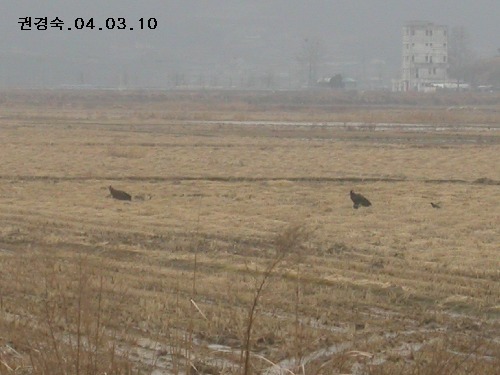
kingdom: Animalia
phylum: Chordata
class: Aves
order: Accipitriformes
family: Accipitridae
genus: Aegypius
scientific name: Aegypius monachus
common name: Cinereous vulture
